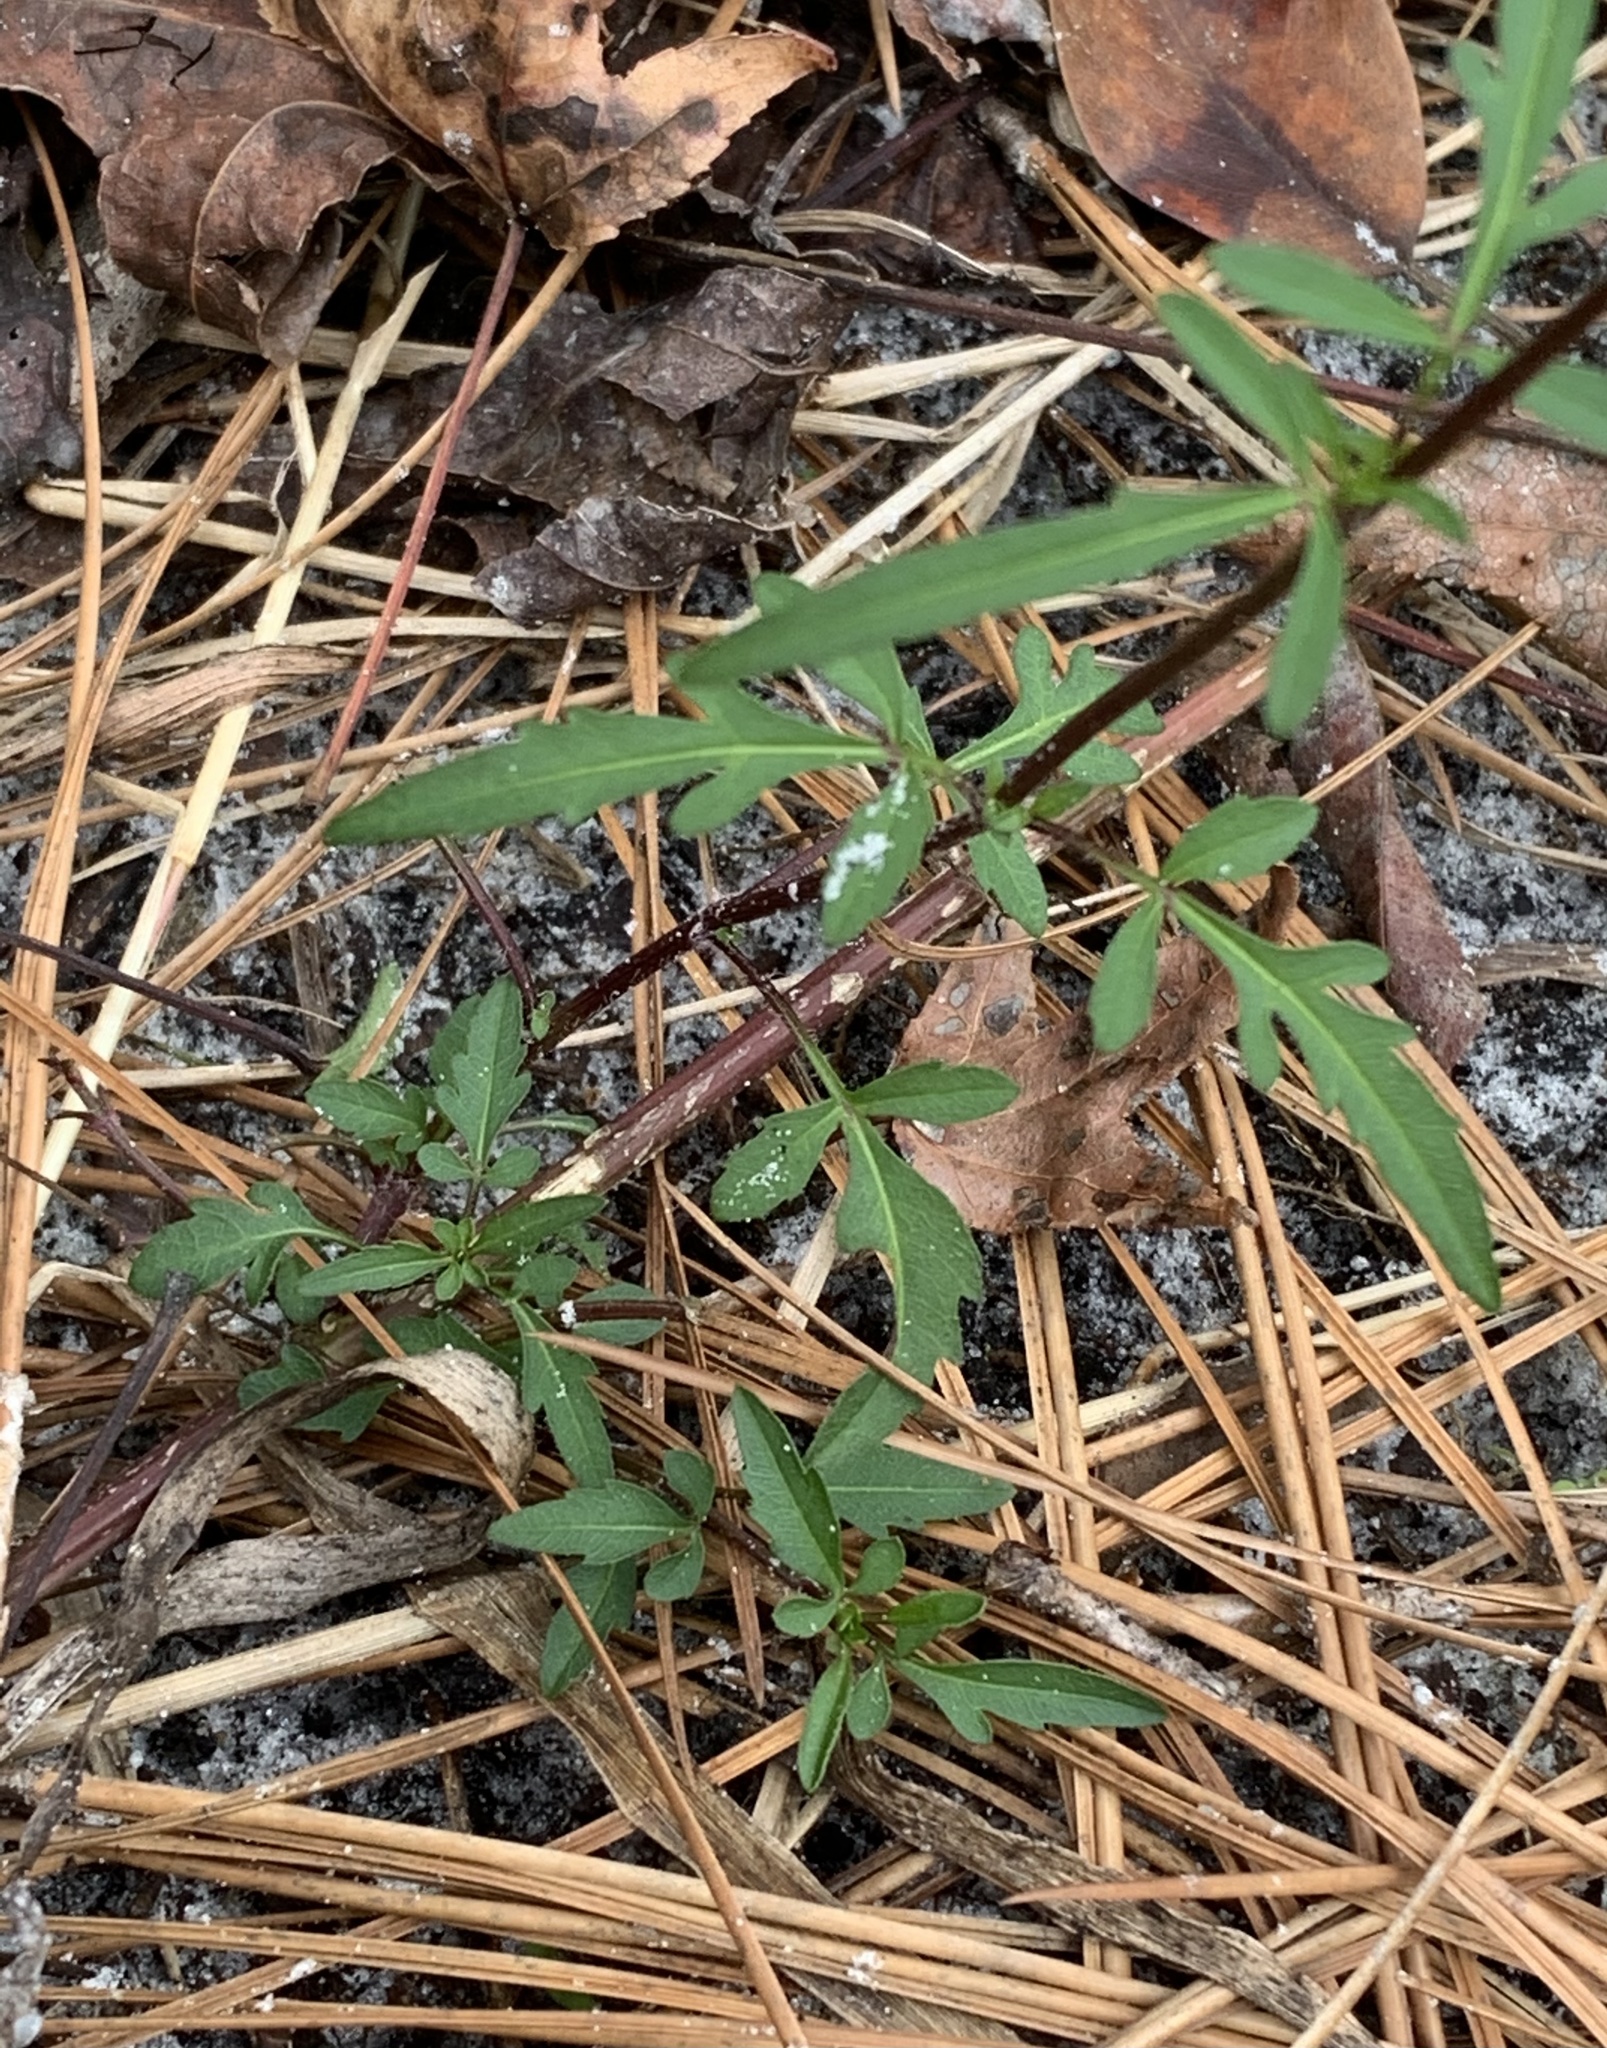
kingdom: Plantae
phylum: Tracheophyta
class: Magnoliopsida
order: Asterales
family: Asteraceae
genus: Bidens
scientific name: Bidens mitis
